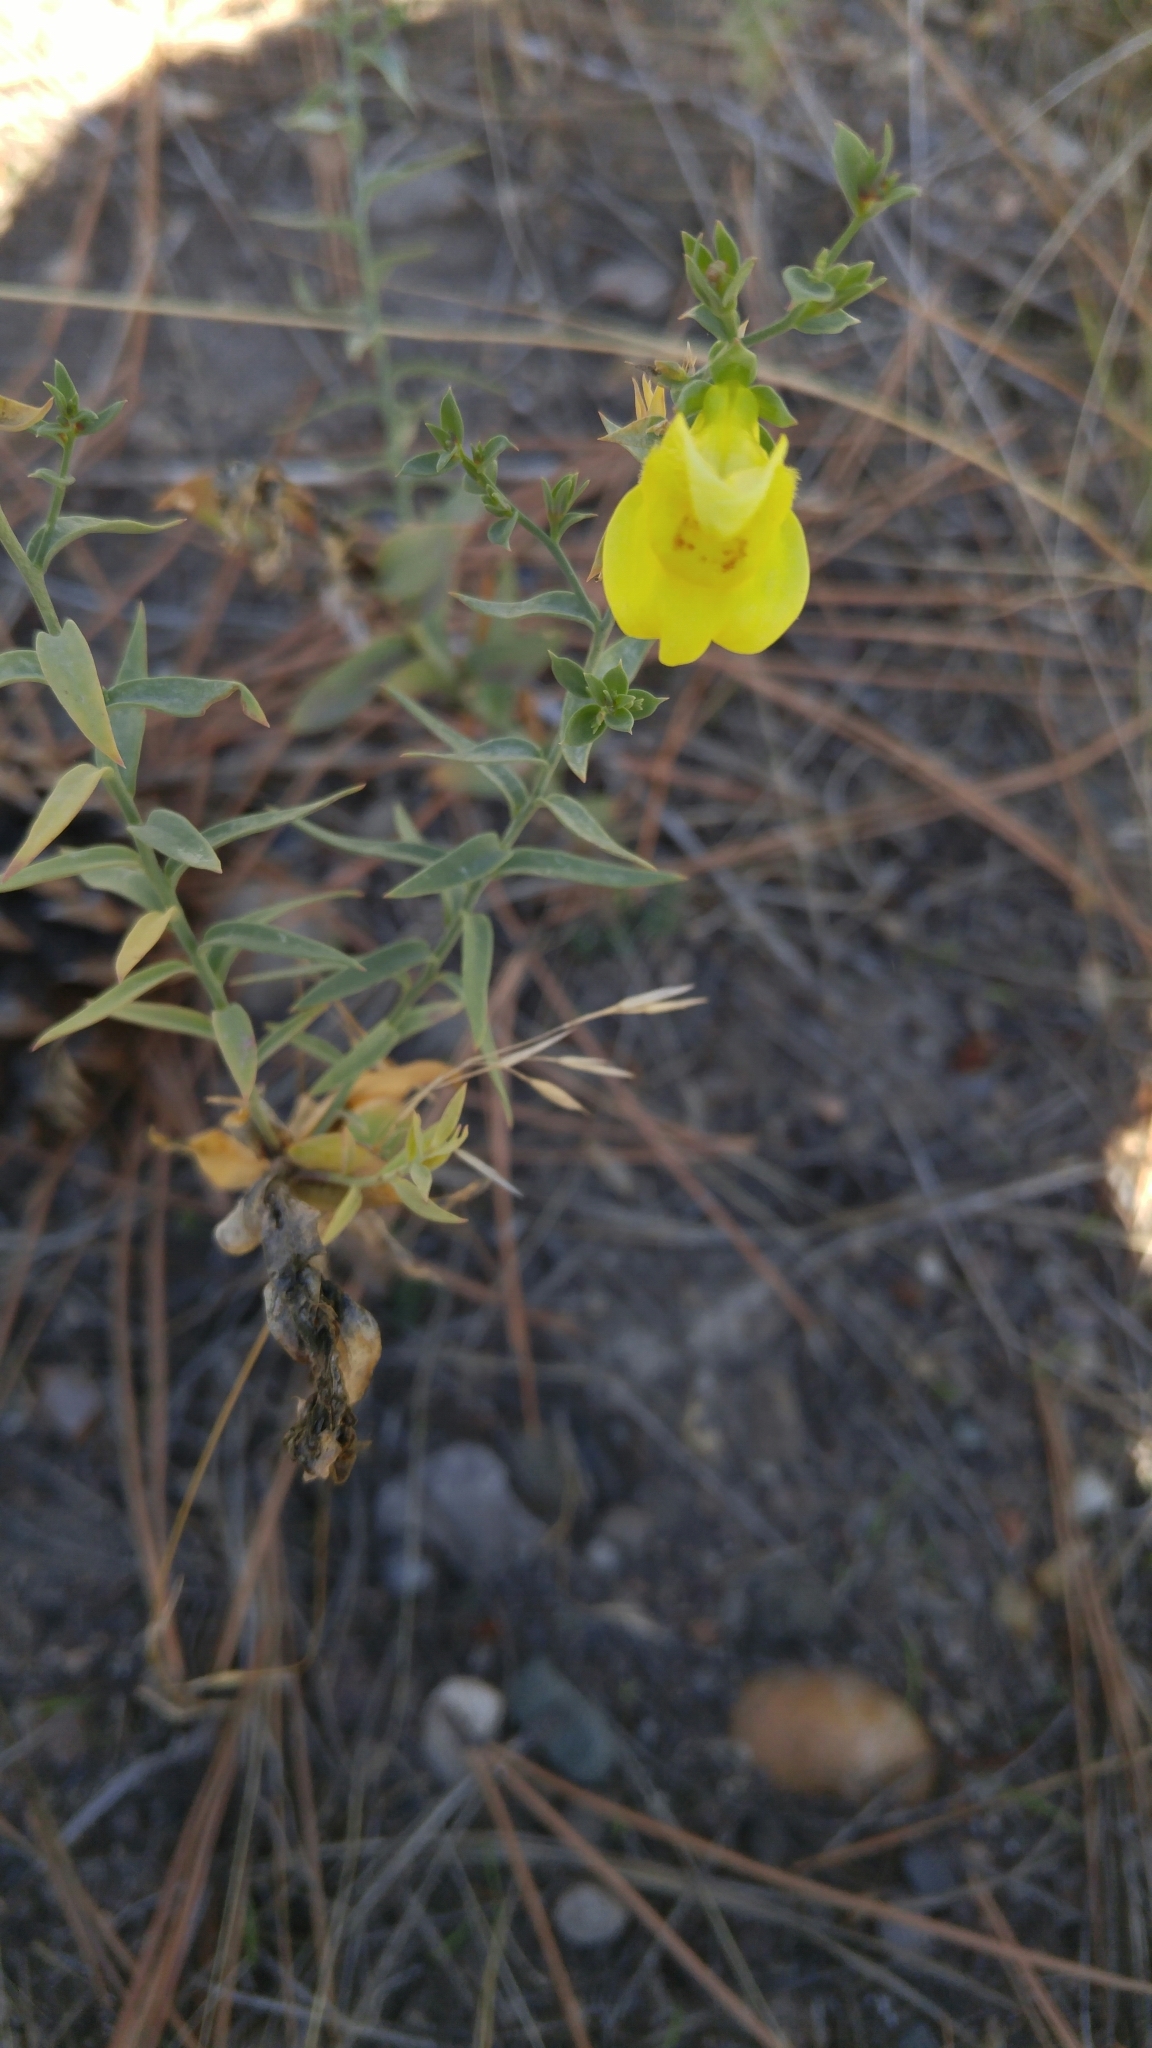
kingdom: Plantae
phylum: Tracheophyta
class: Magnoliopsida
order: Lamiales
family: Plantaginaceae
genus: Linaria
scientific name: Linaria dalmatica
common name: Dalmatian toadflax
